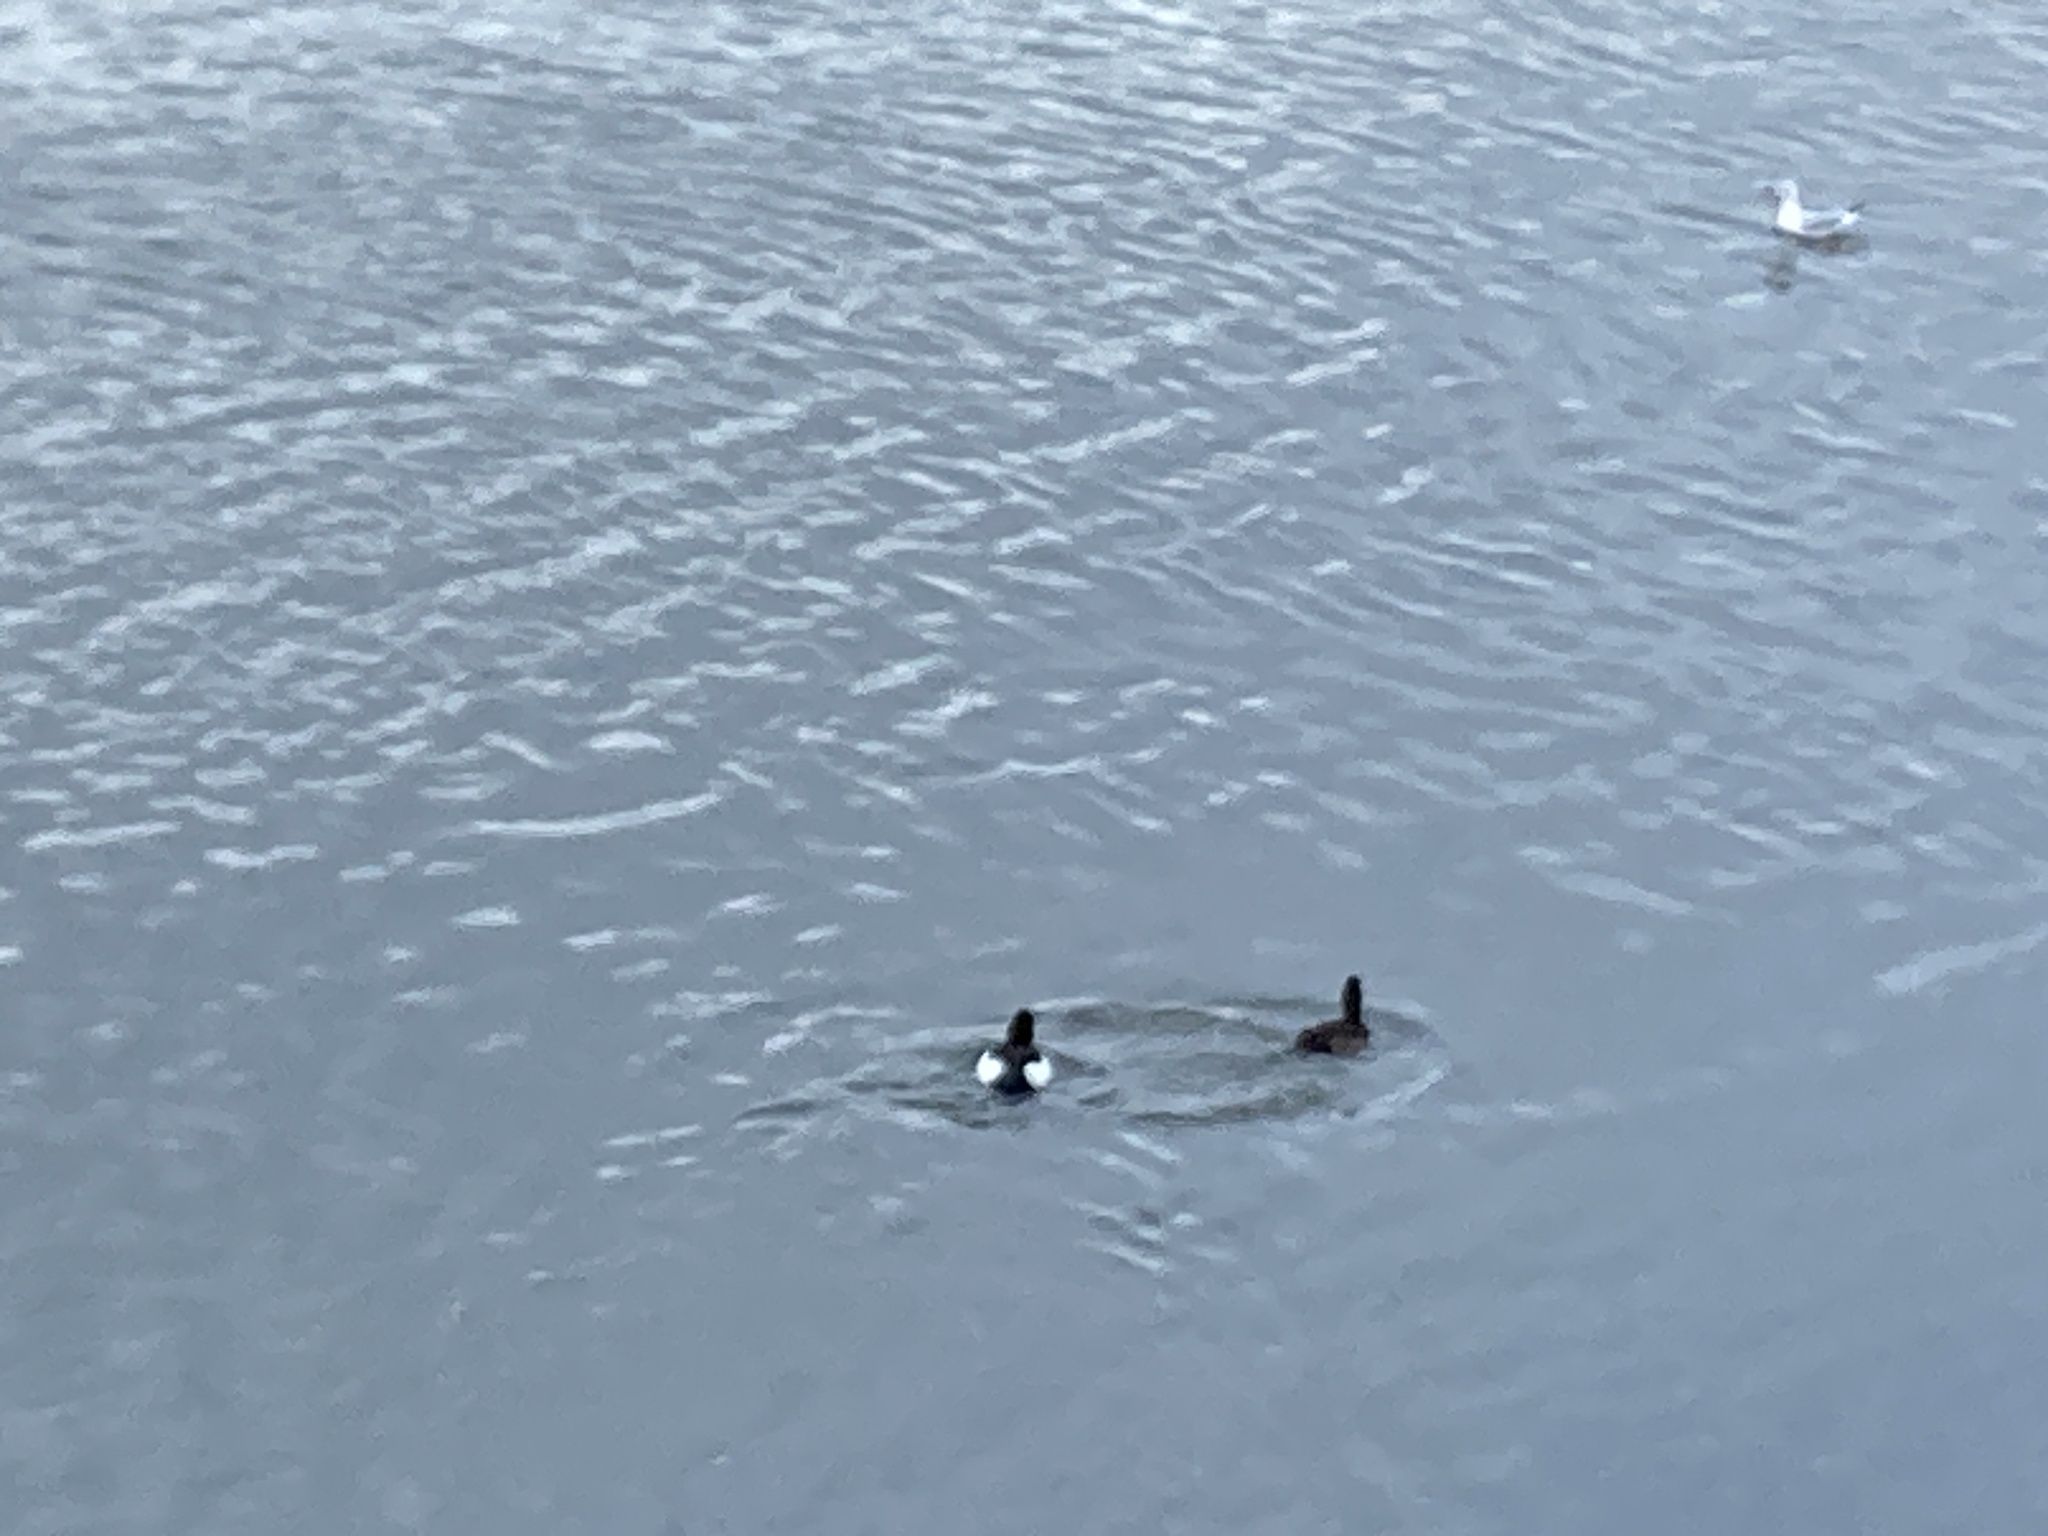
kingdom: Animalia
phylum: Chordata
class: Aves
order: Anseriformes
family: Anatidae
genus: Aythya
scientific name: Aythya fuligula
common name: Tufted duck
